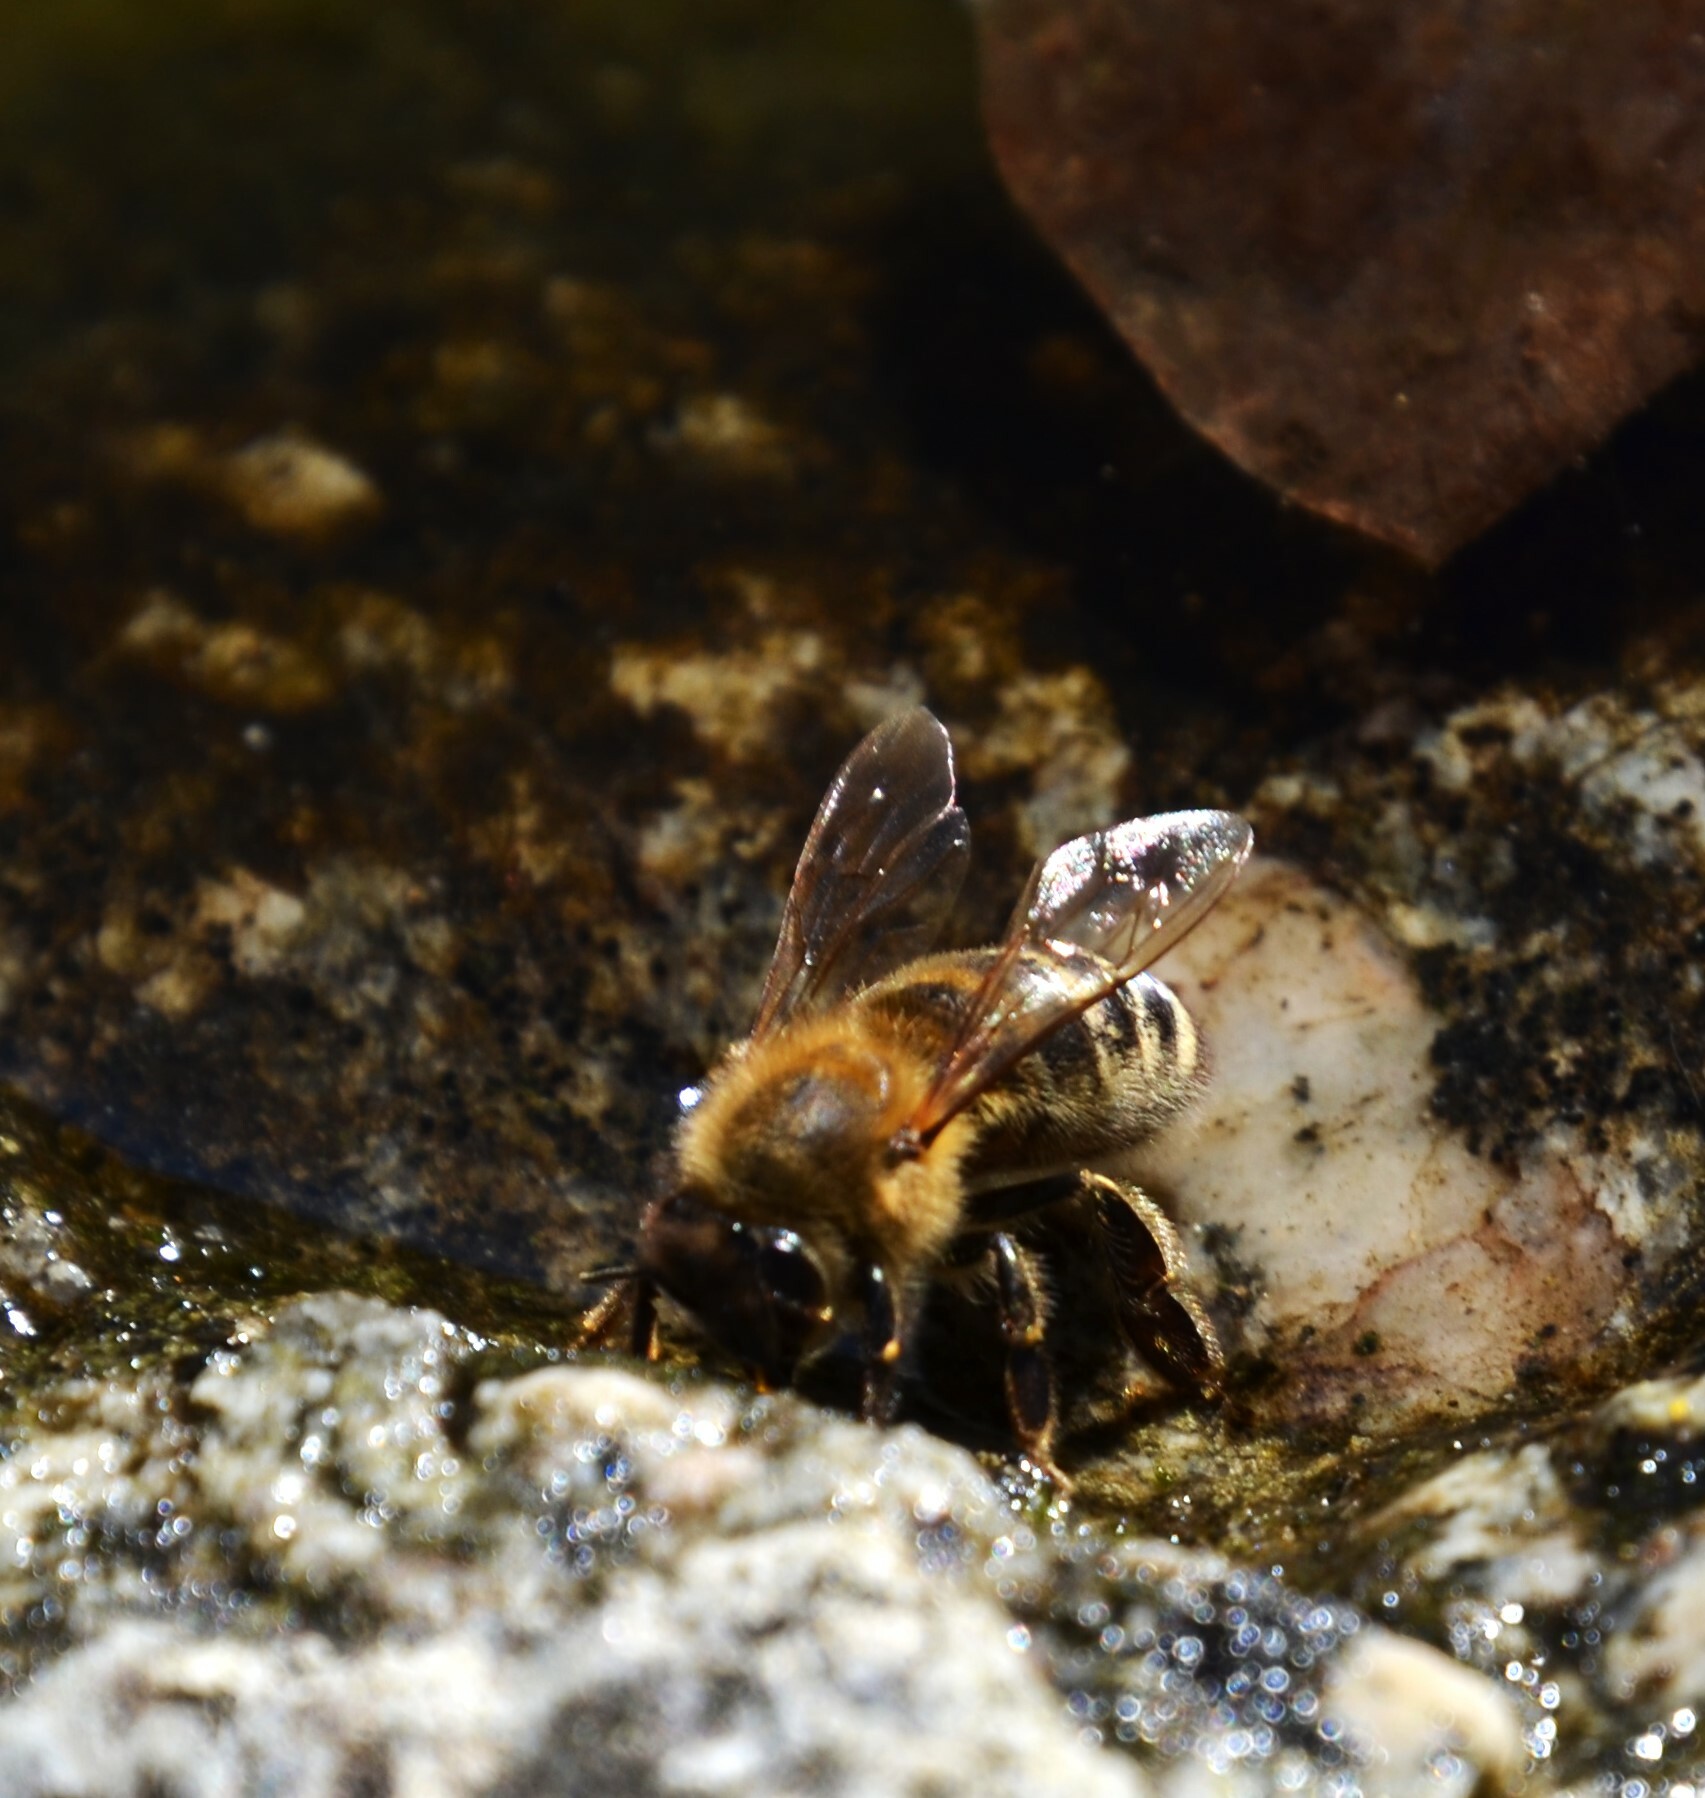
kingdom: Animalia
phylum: Arthropoda
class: Insecta
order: Hymenoptera
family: Apidae
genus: Apis
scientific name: Apis mellifera
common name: Honey bee
